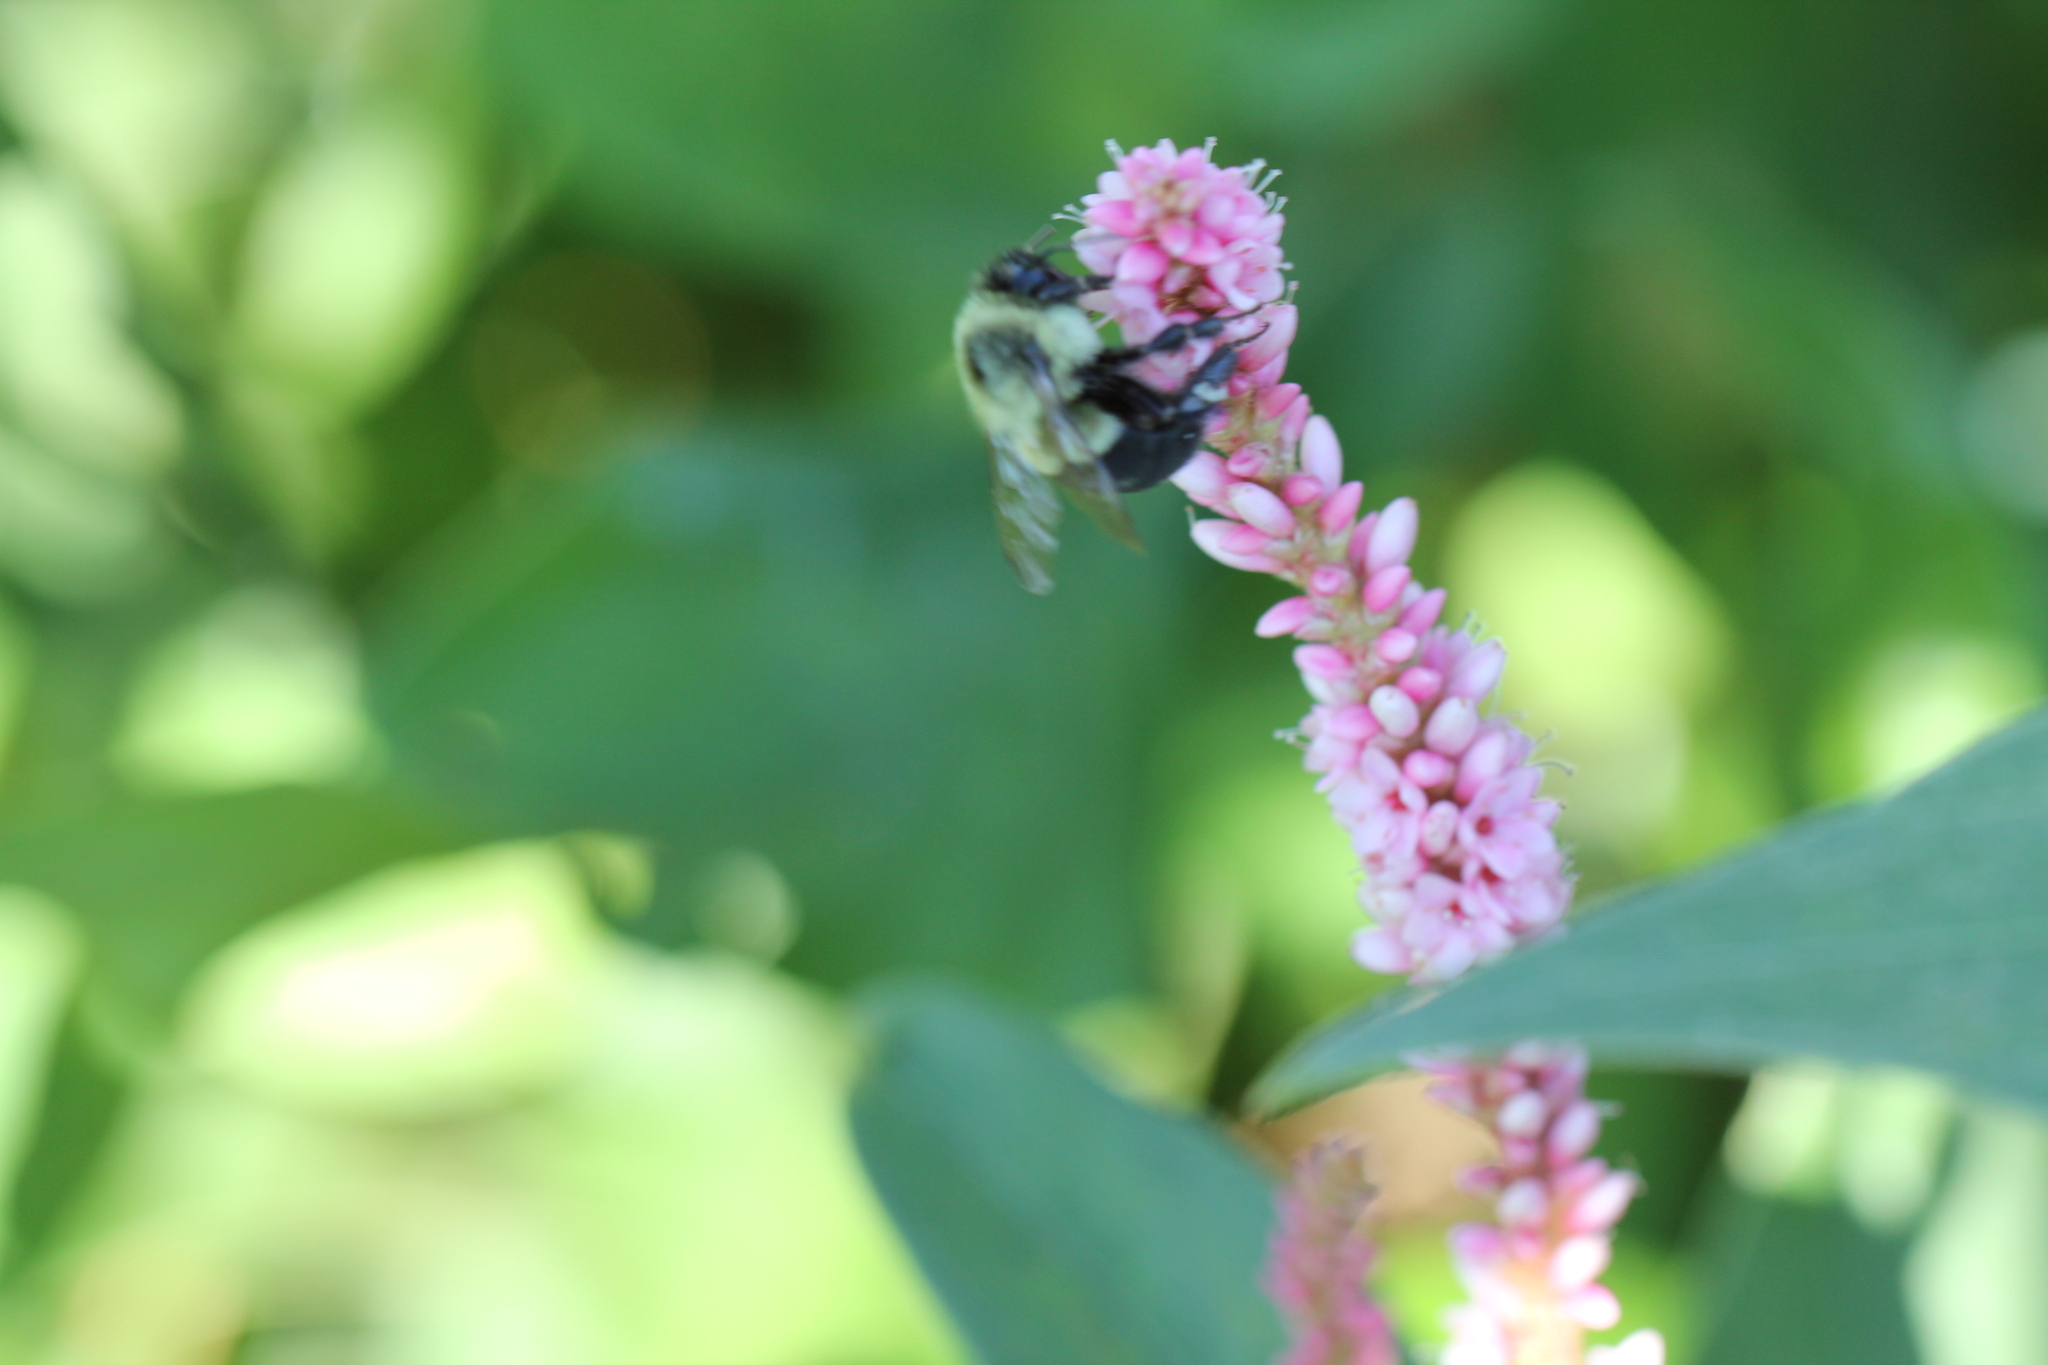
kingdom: Animalia
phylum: Arthropoda
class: Insecta
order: Hymenoptera
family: Apidae
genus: Bombus
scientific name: Bombus impatiens
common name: Common eastern bumble bee
